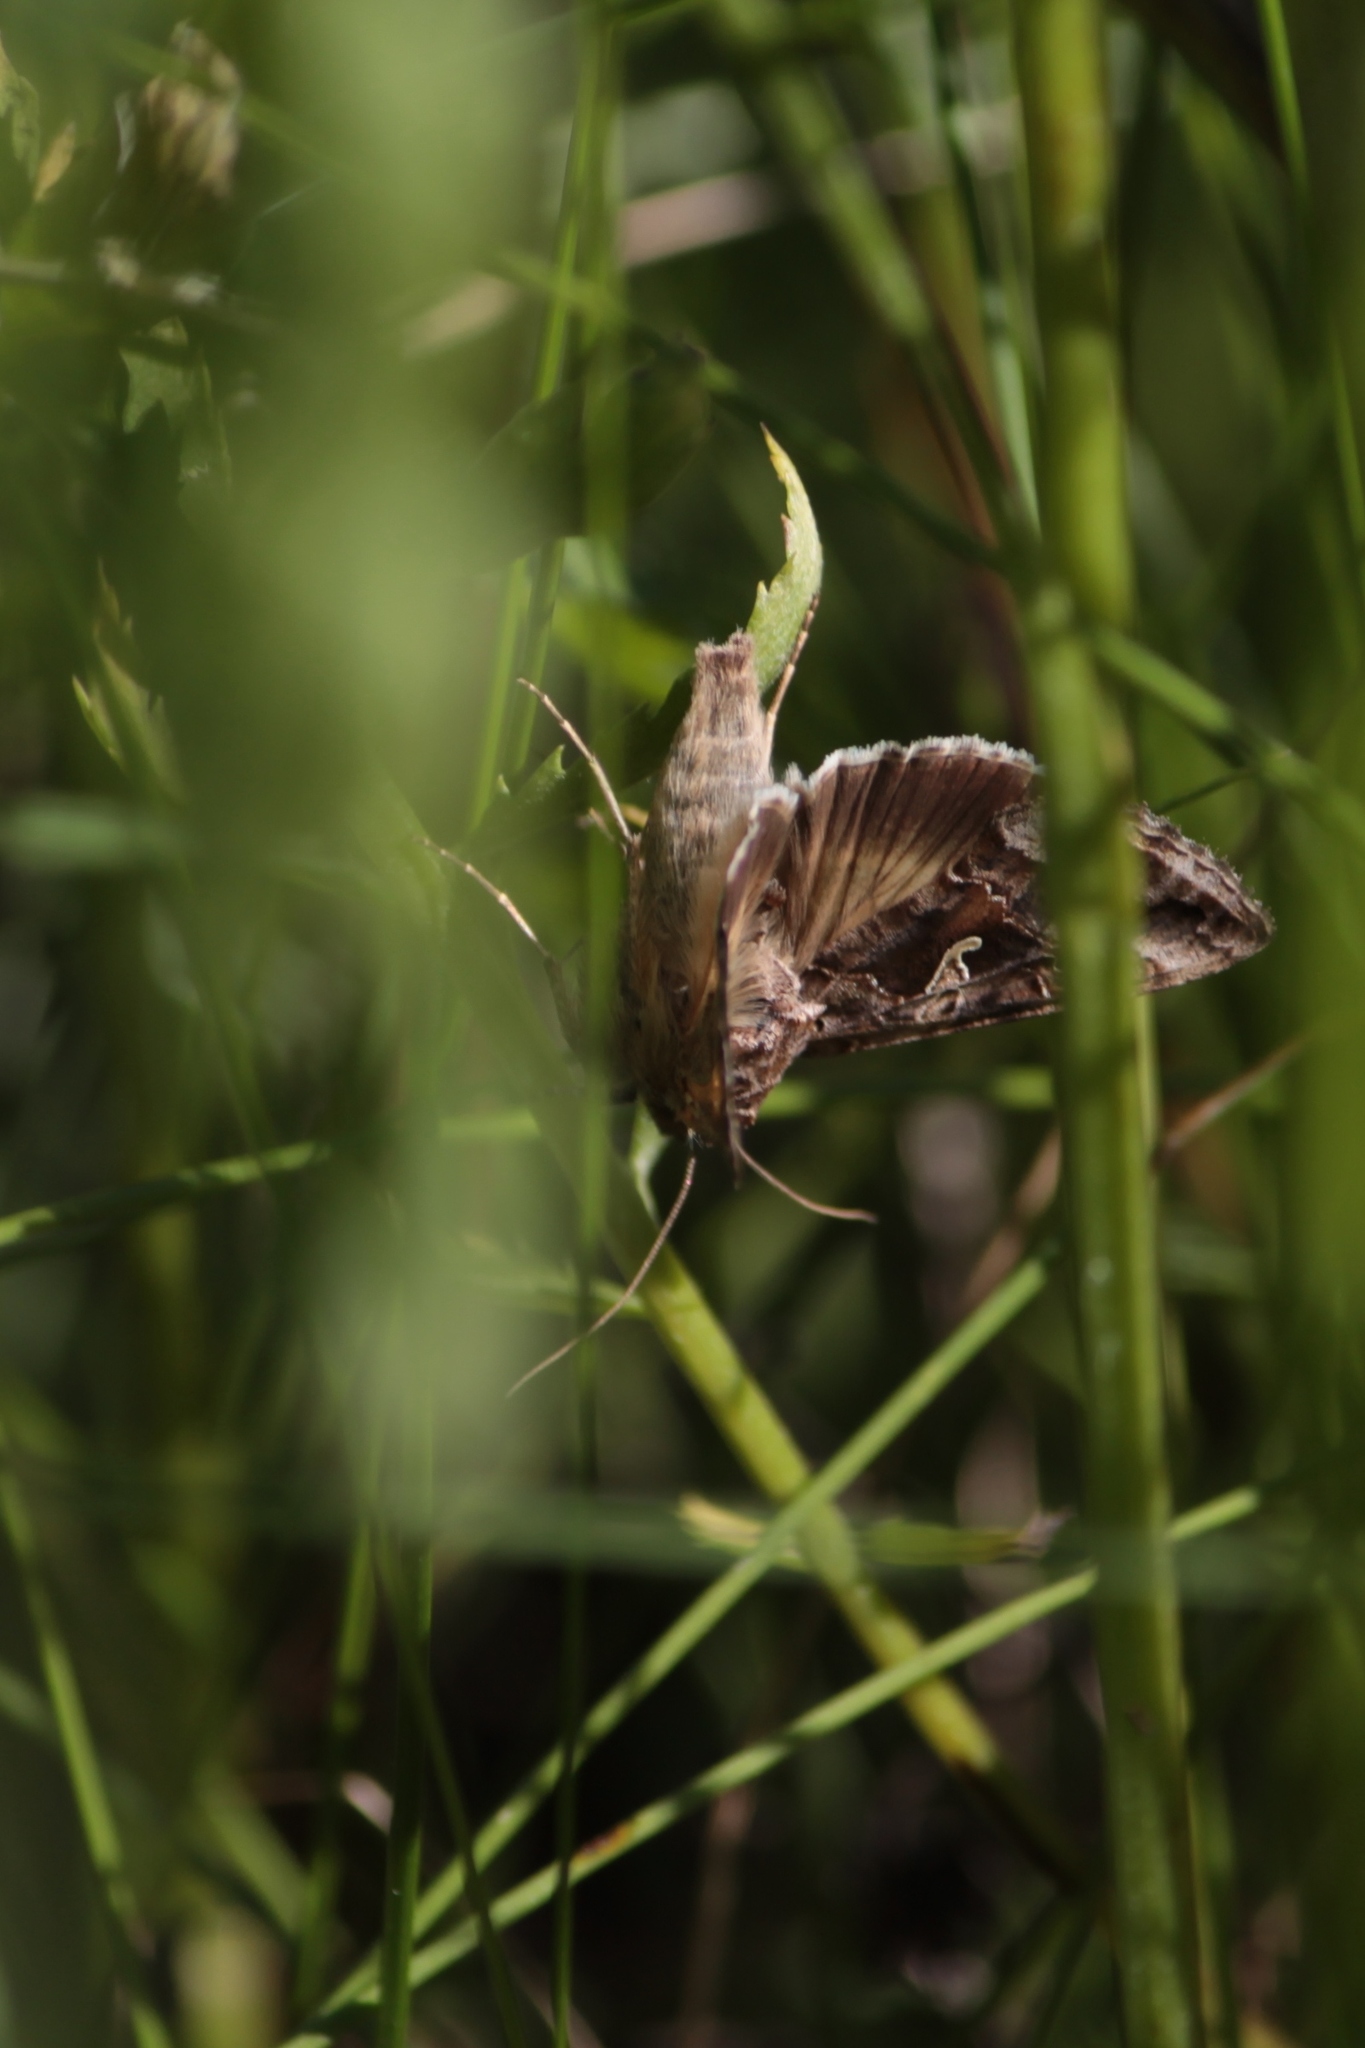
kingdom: Animalia
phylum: Arthropoda
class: Insecta
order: Lepidoptera
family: Noctuidae
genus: Autographa
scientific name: Autographa gamma
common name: Silver y
